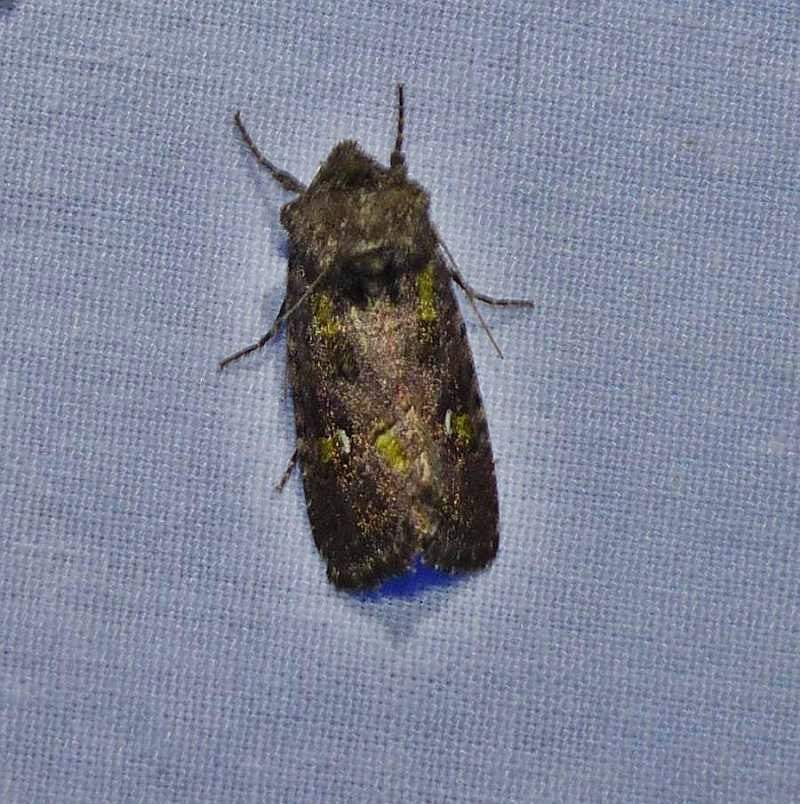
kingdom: Animalia
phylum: Arthropoda
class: Insecta
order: Lepidoptera
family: Noctuidae
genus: Lacinipolia
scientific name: Lacinipolia renigera
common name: Kidney-spotted minor
